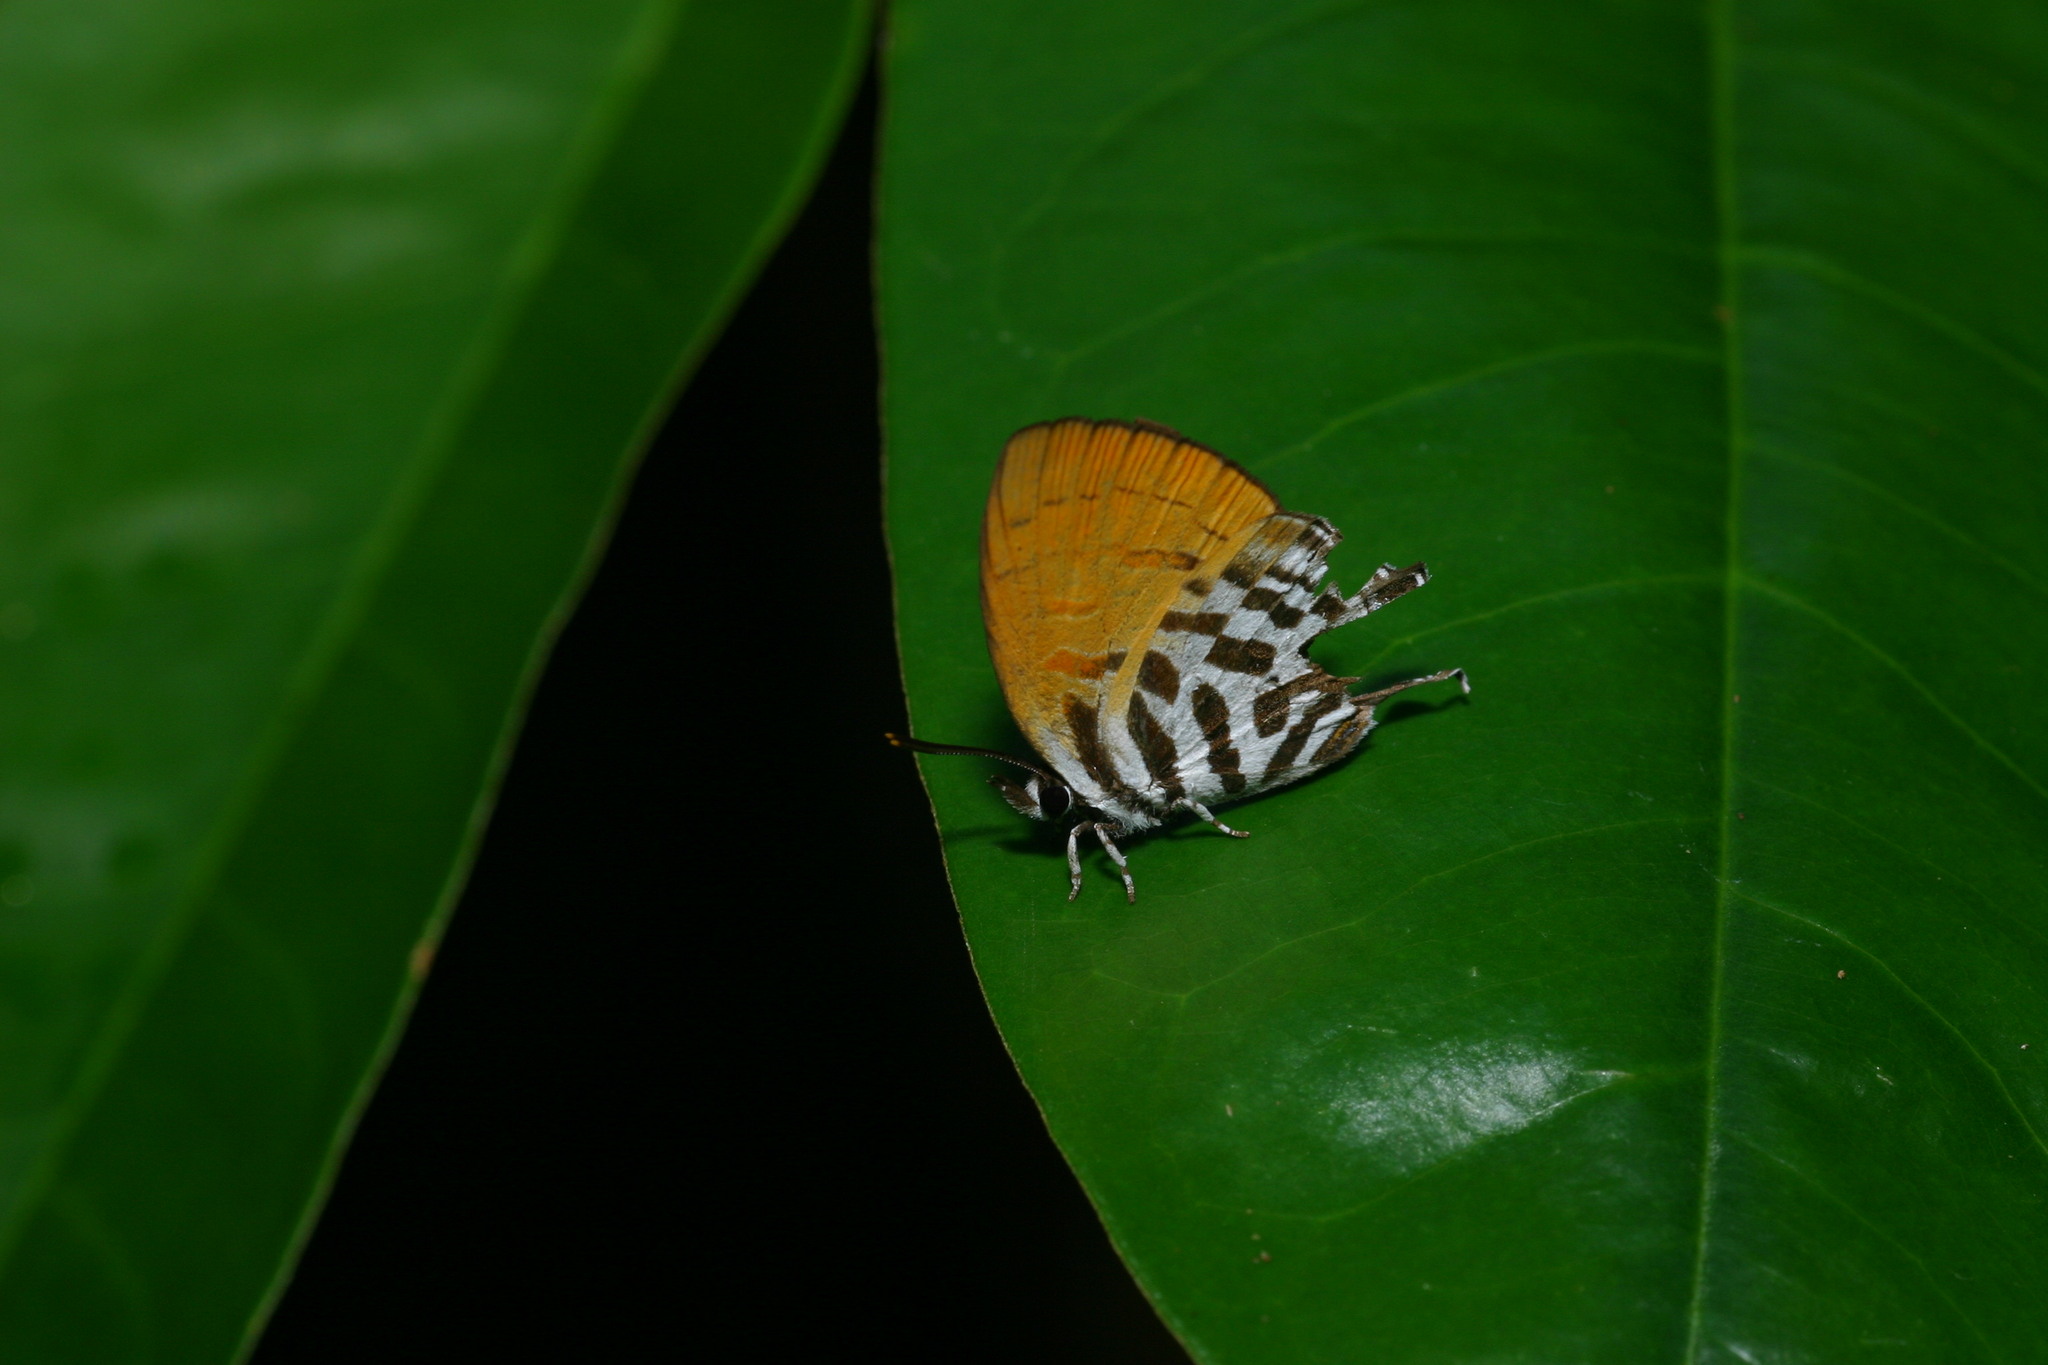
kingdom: Animalia
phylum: Arthropoda
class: Insecta
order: Lepidoptera
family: Lycaenidae
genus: Drupadia
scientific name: Drupadia ravindra
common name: Common posy
